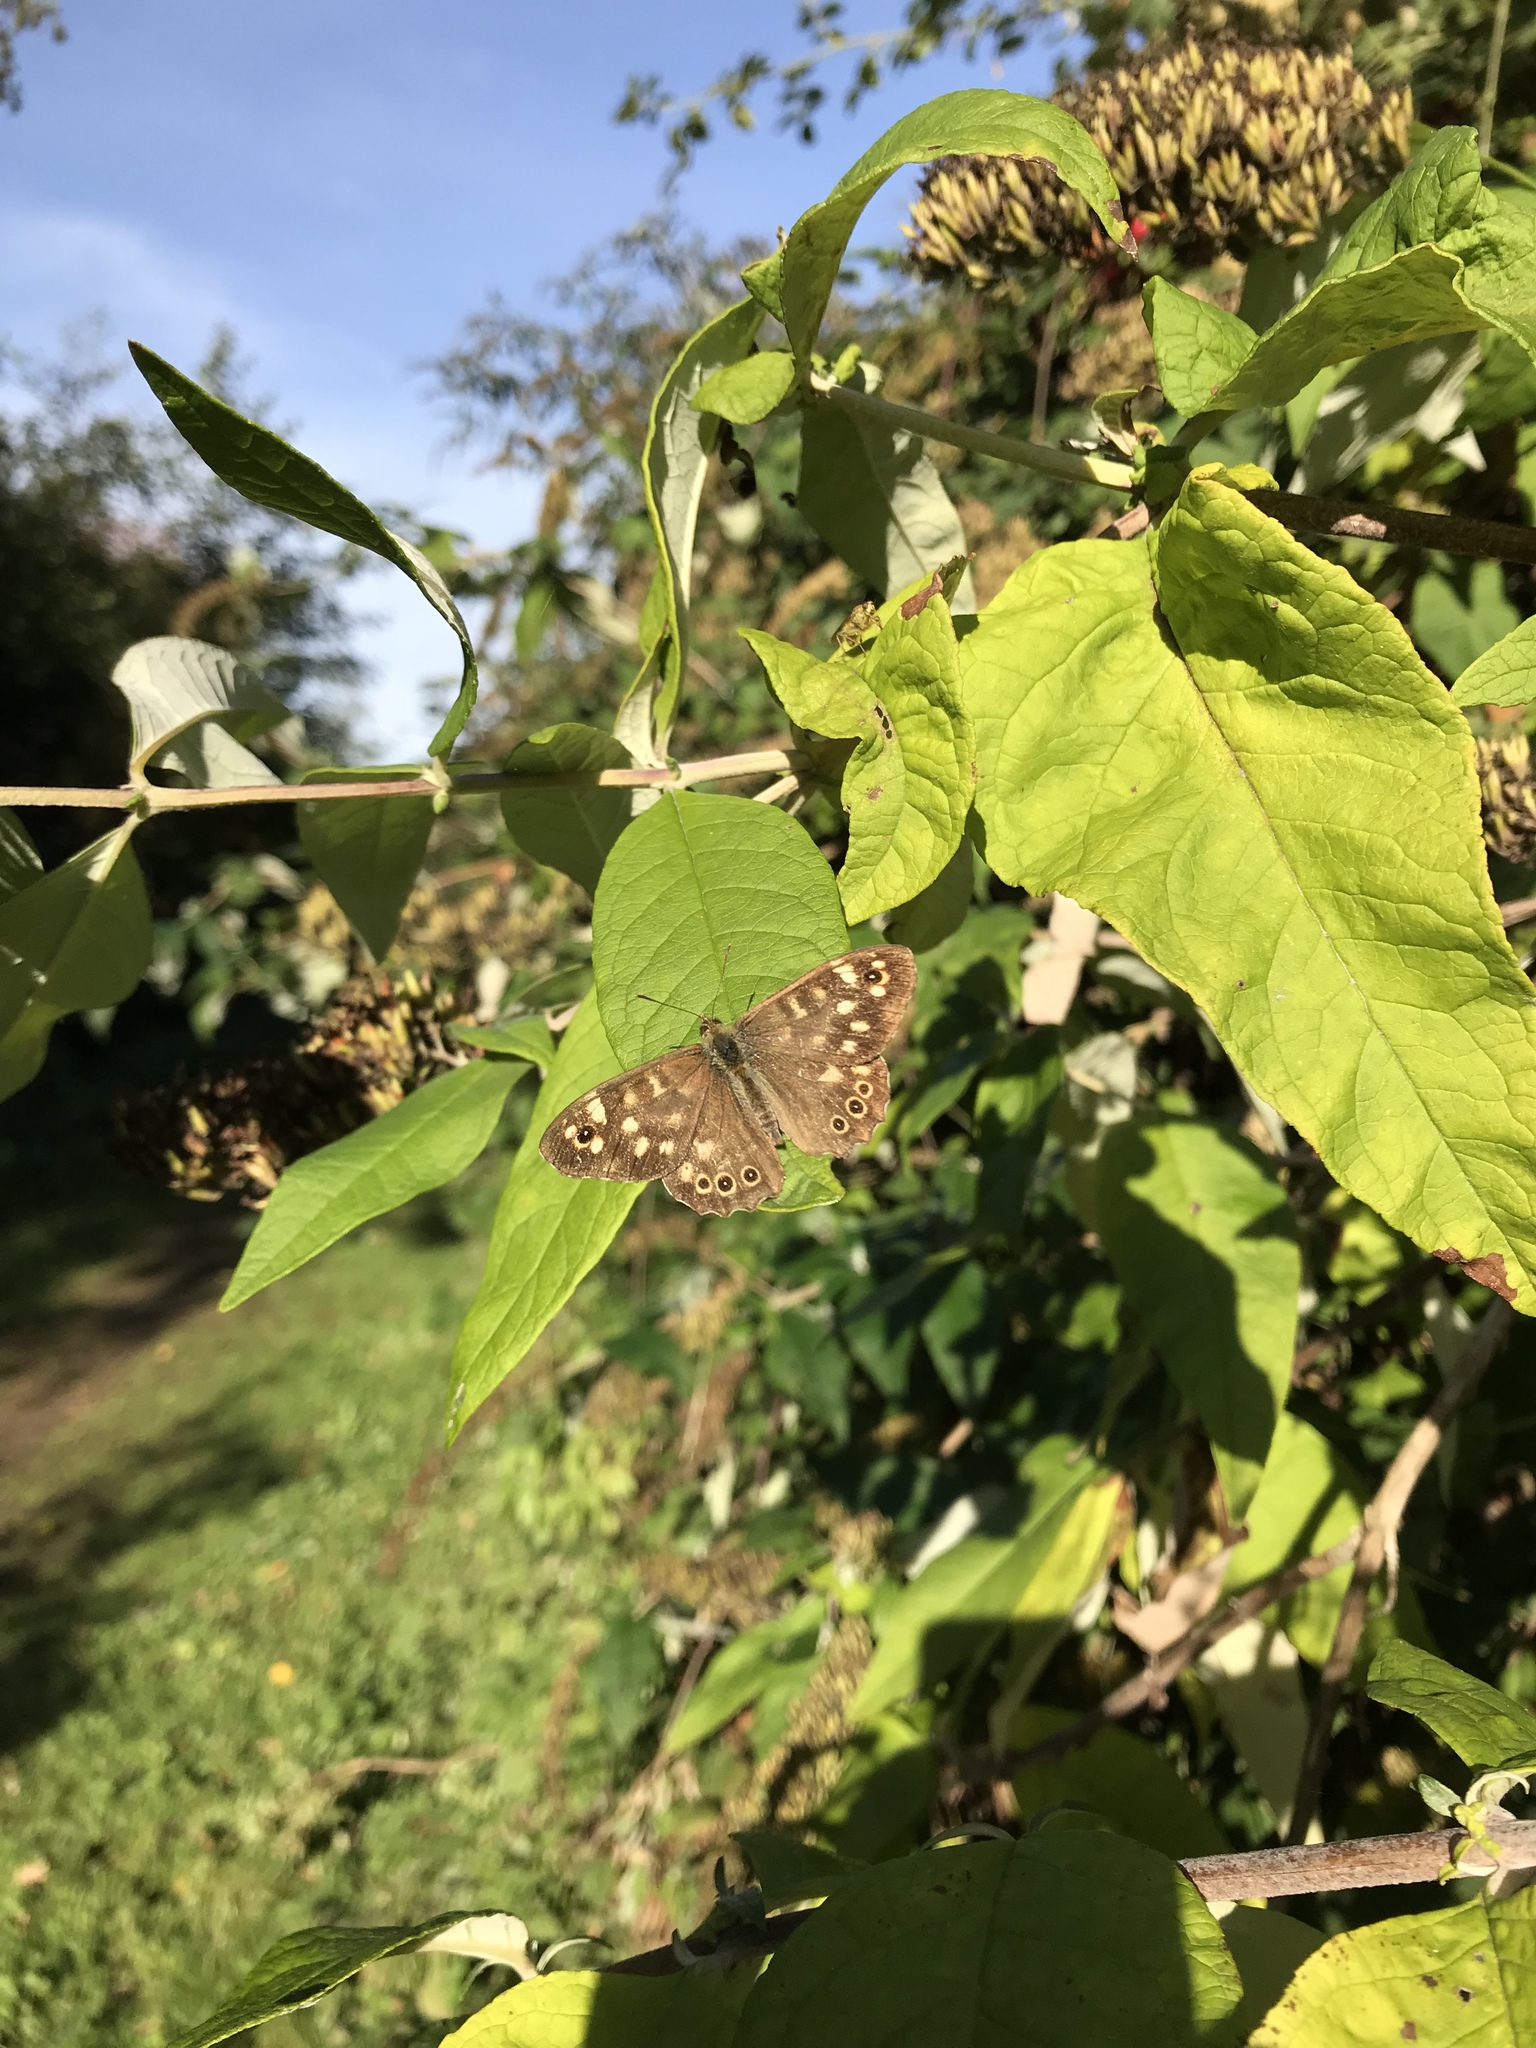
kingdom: Animalia
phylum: Arthropoda
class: Insecta
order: Lepidoptera
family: Nymphalidae
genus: Pararge
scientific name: Pararge aegeria
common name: Speckled wood
